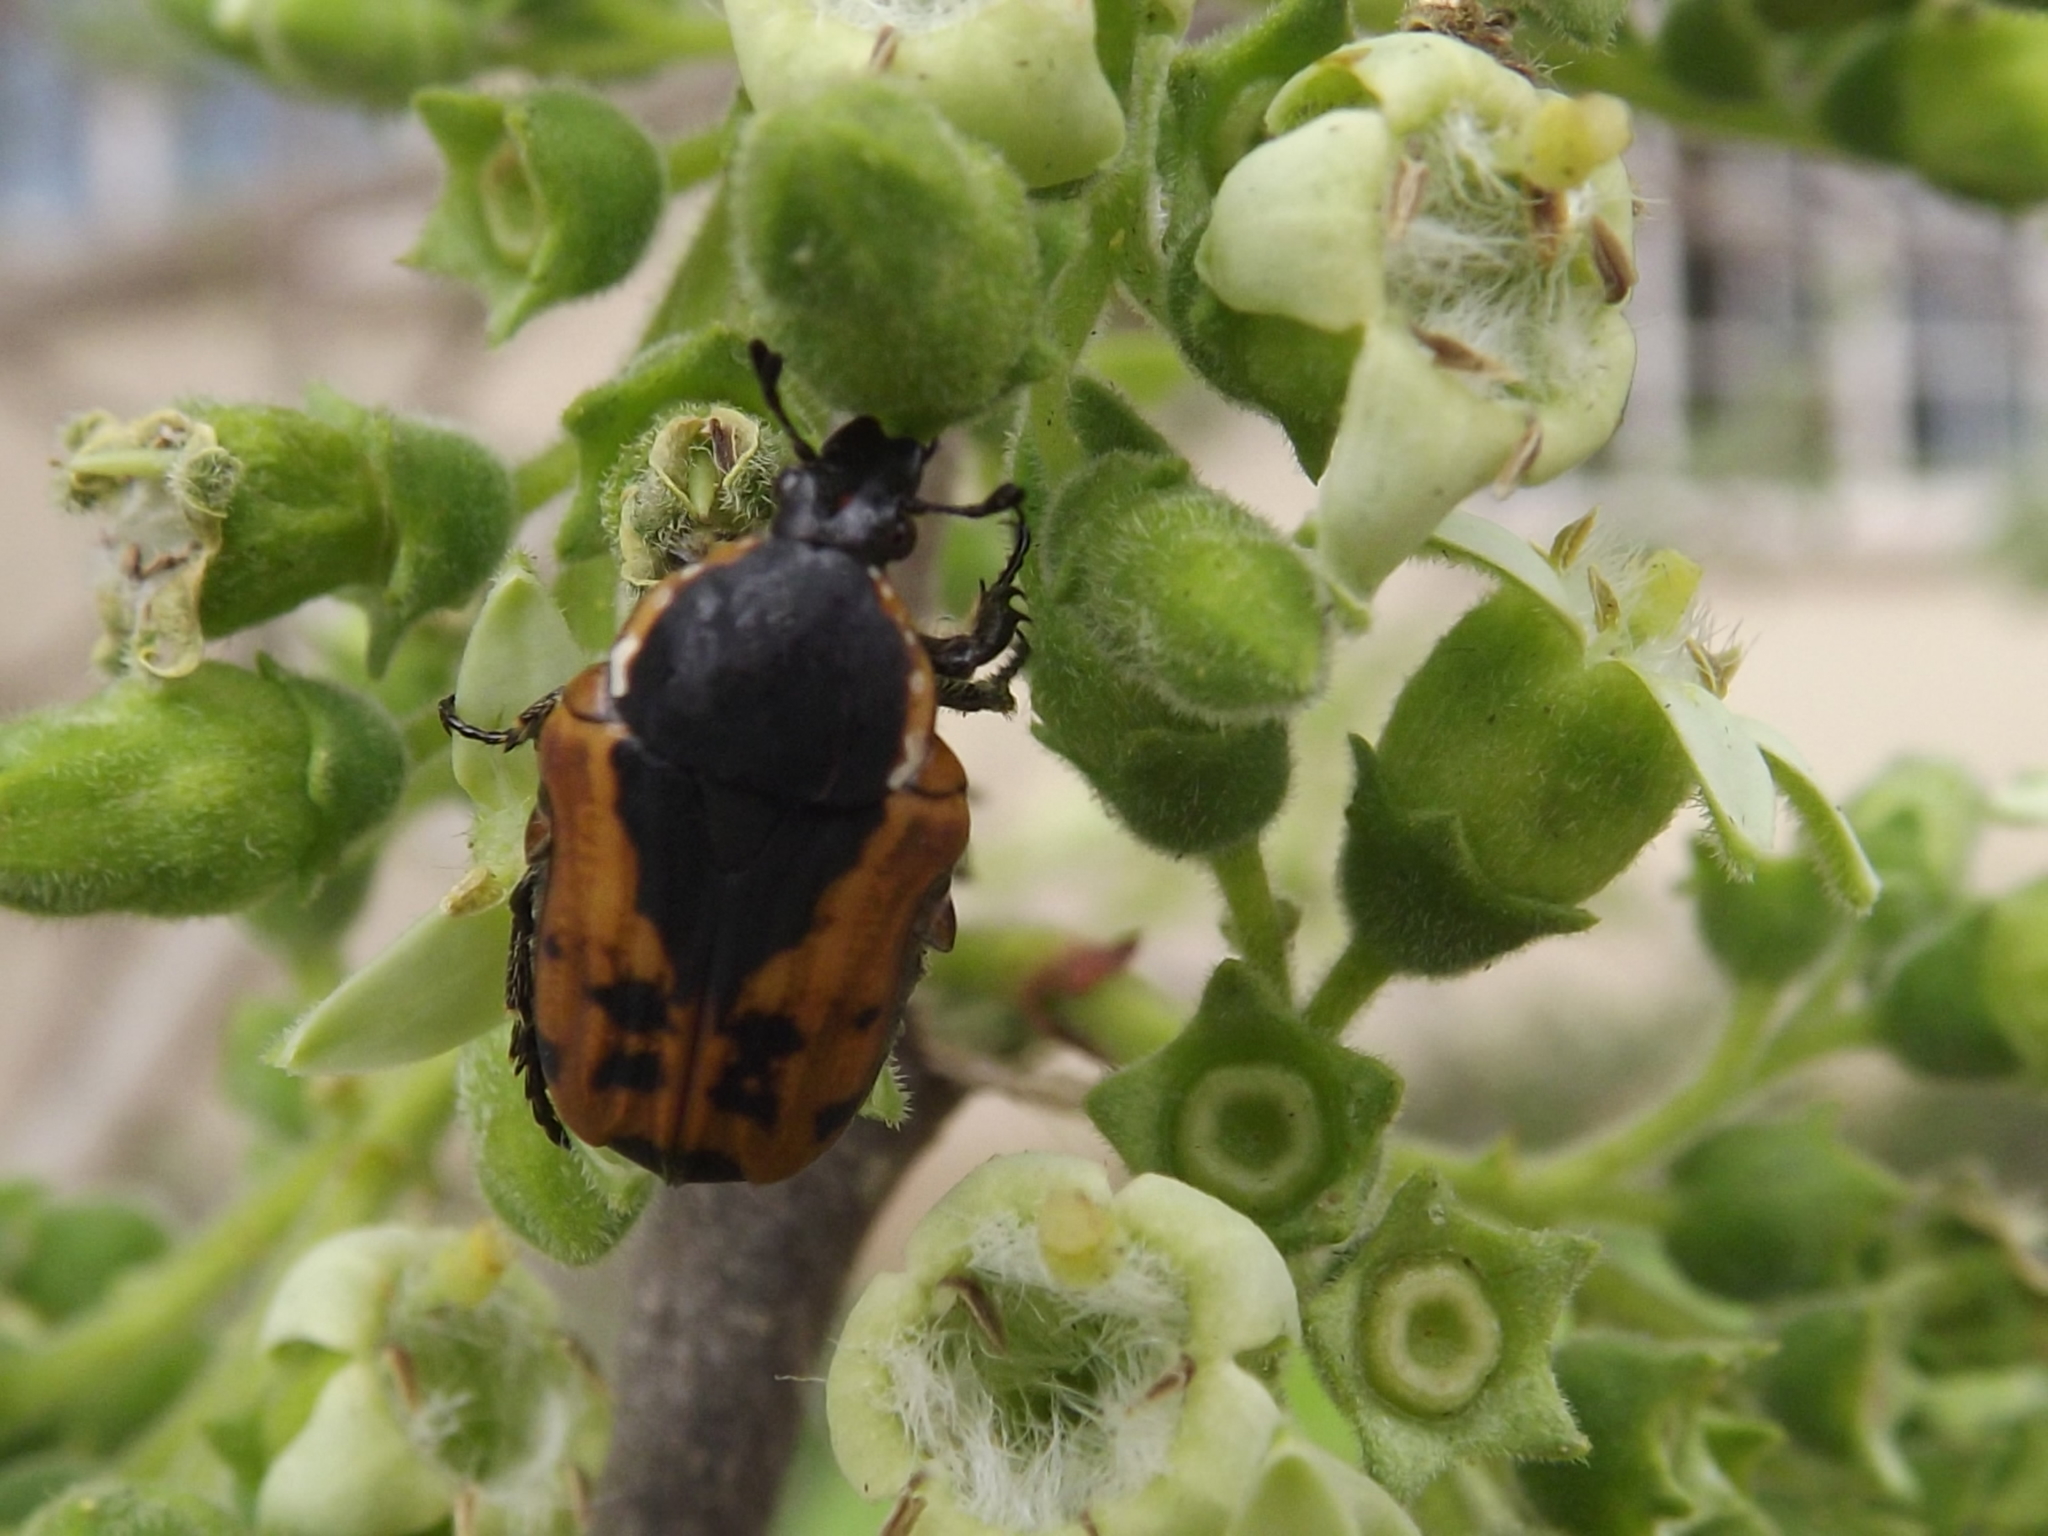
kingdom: Animalia
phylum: Arthropoda
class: Insecta
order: Coleoptera
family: Scarabaeidae
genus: Dolichostethus
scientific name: Dolichostethus levis
